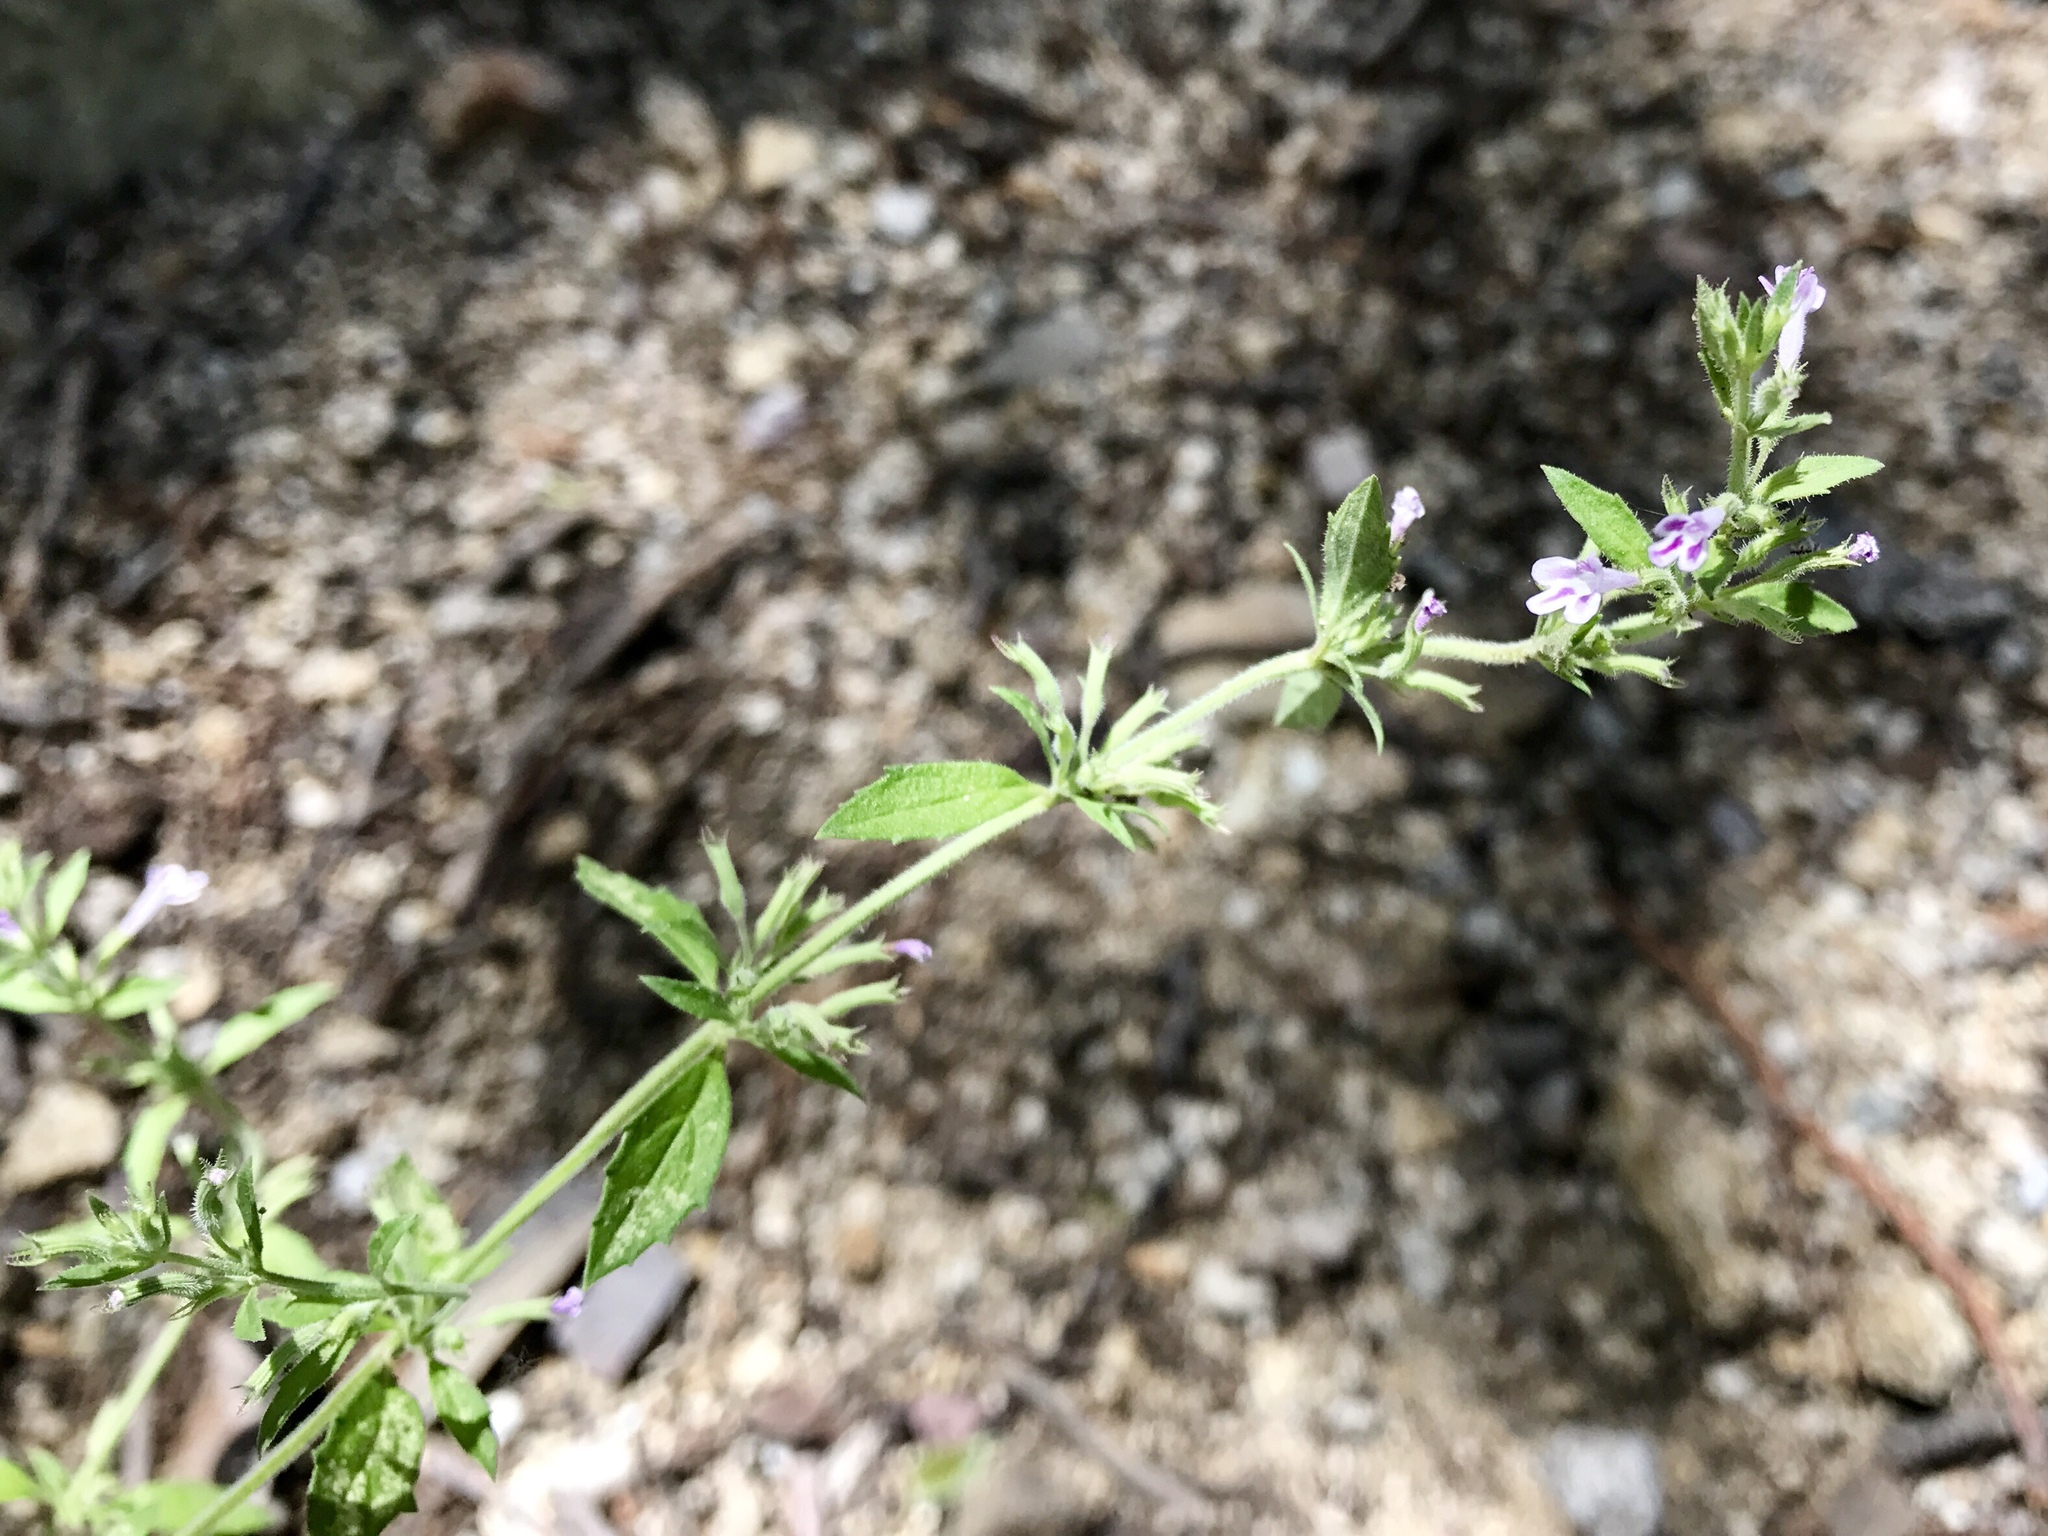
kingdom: Plantae
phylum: Tracheophyta
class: Magnoliopsida
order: Lamiales
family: Lamiaceae
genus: Hedeoma
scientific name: Hedeoma dentata
